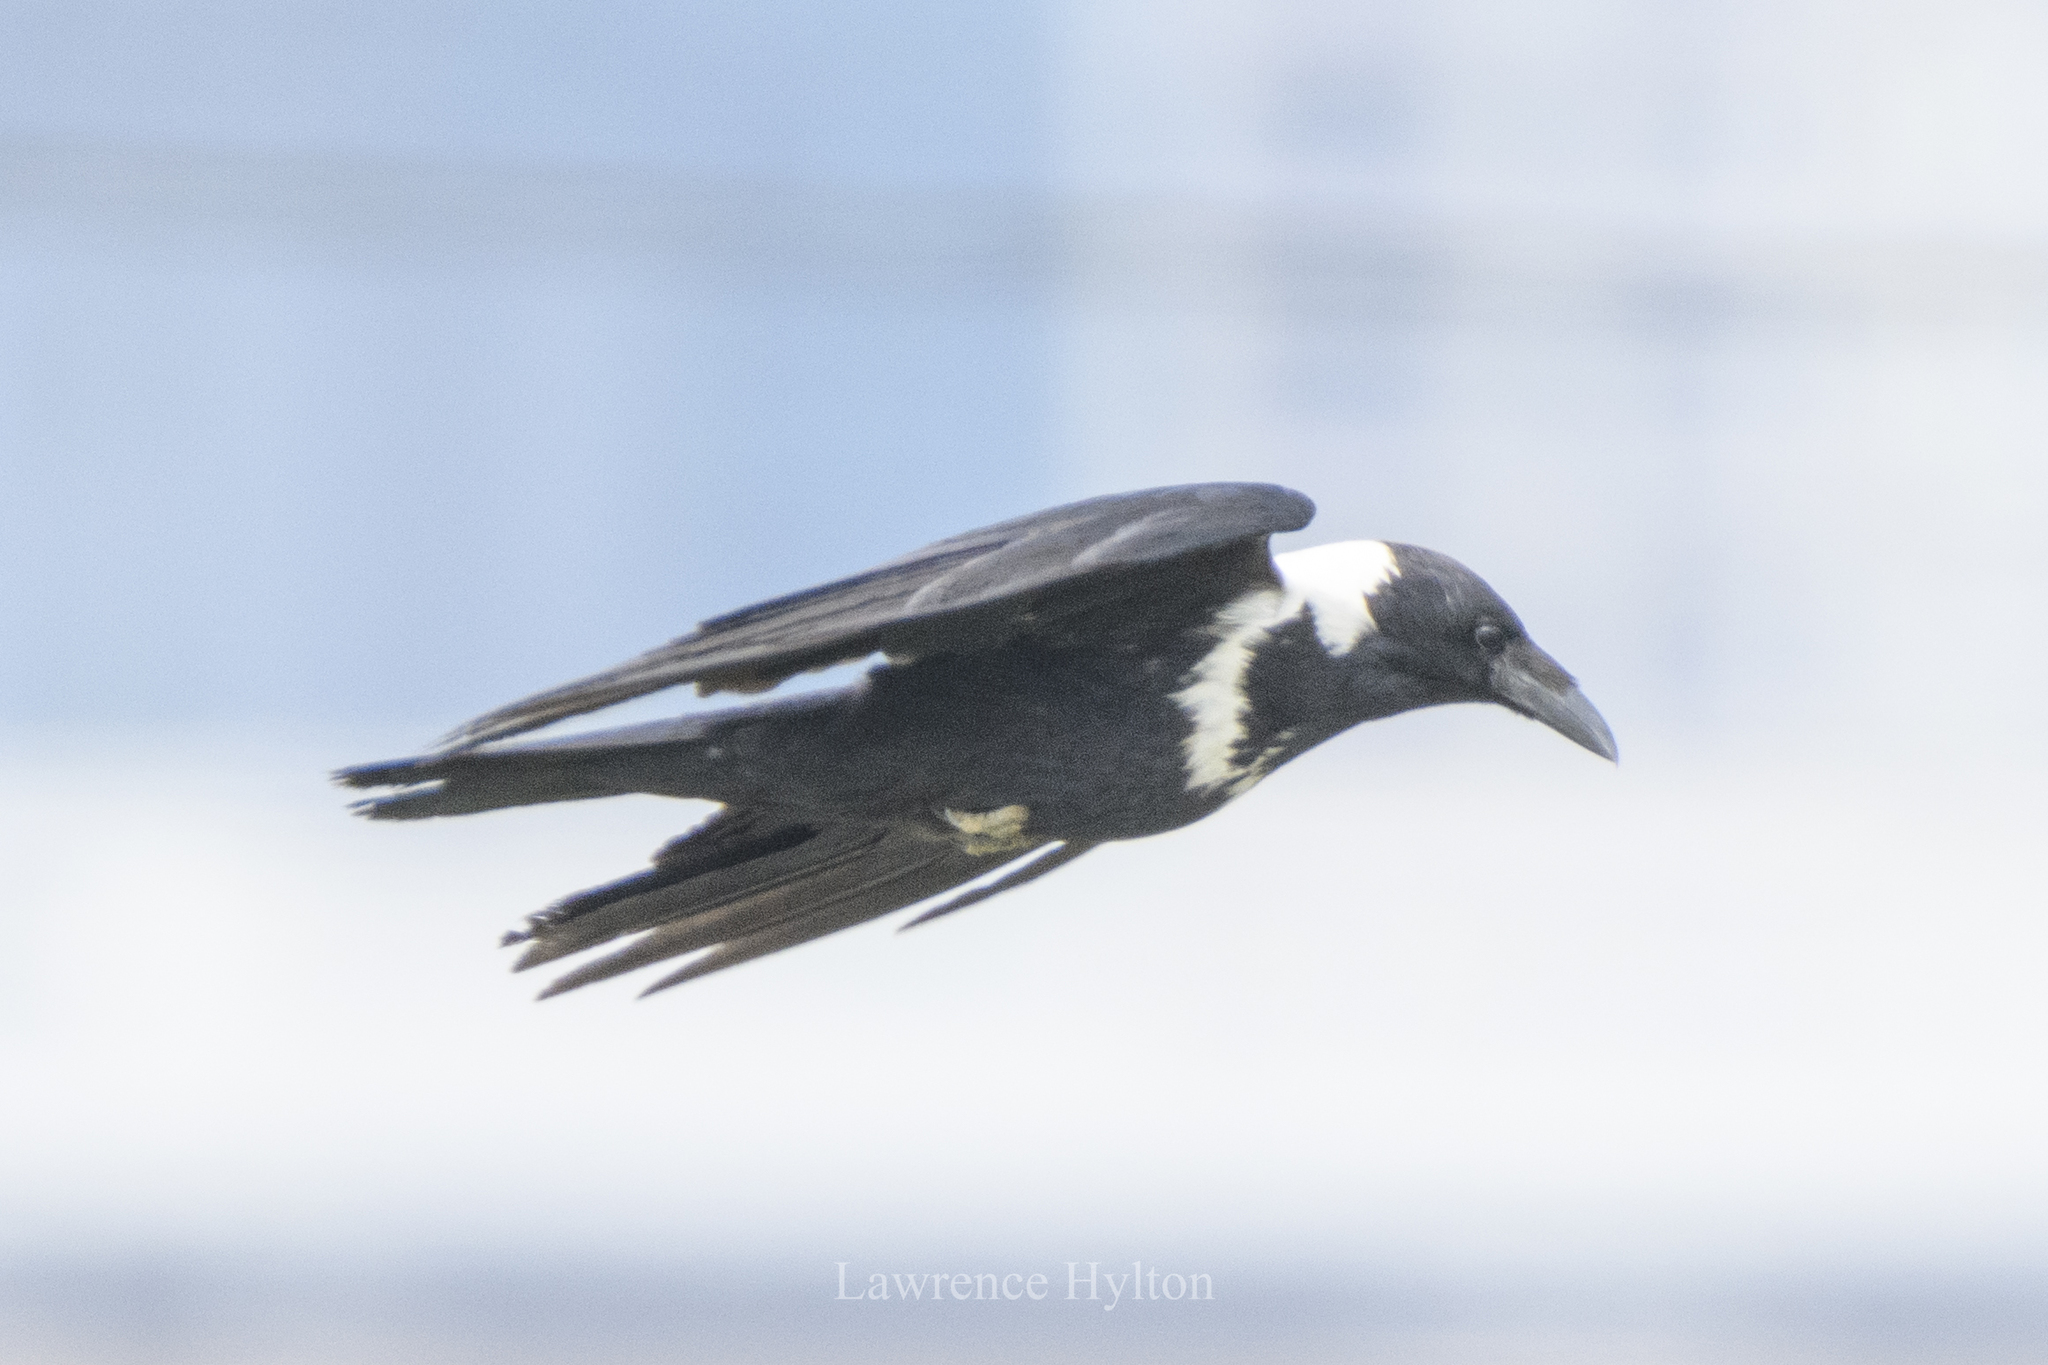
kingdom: Animalia
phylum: Chordata
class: Aves
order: Passeriformes
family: Corvidae
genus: Corvus
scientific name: Corvus pectoralis
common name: Collared crow
